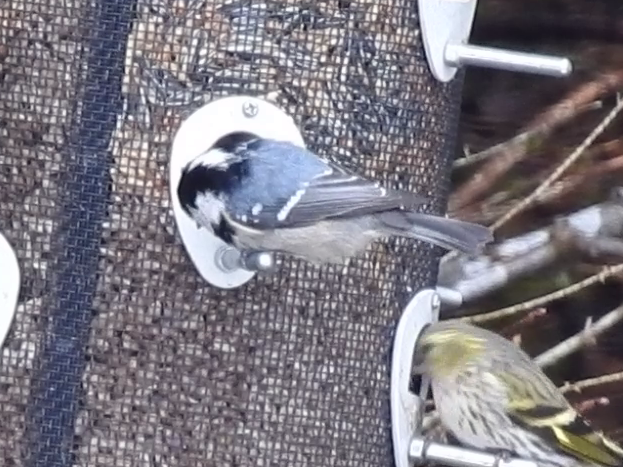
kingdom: Animalia
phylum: Chordata
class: Aves
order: Passeriformes
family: Paridae
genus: Periparus
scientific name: Periparus ater
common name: Coal tit
